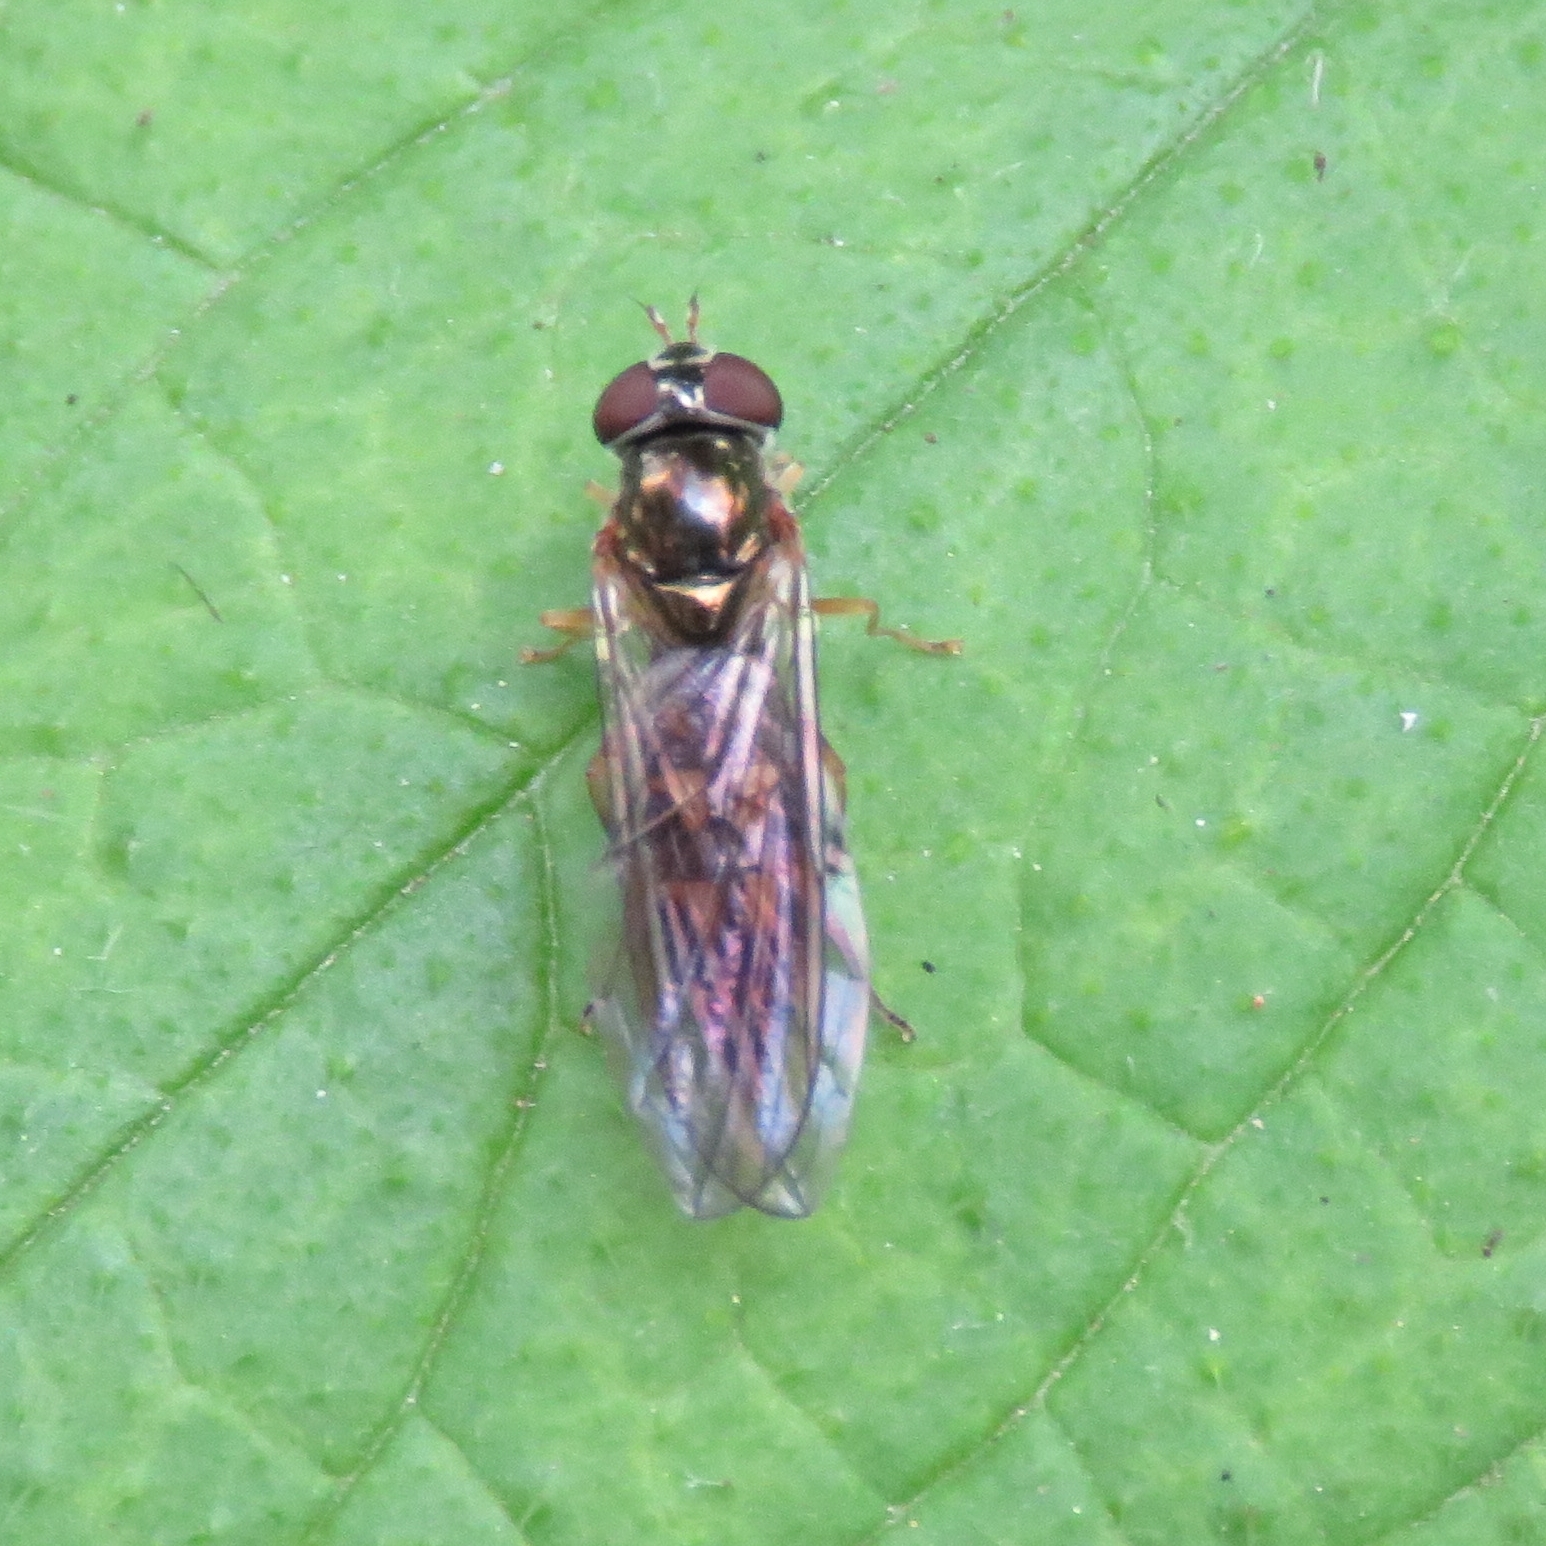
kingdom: Animalia
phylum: Arthropoda
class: Insecta
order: Diptera
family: Syrphidae
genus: Melanostoma
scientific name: Melanostoma scalare
